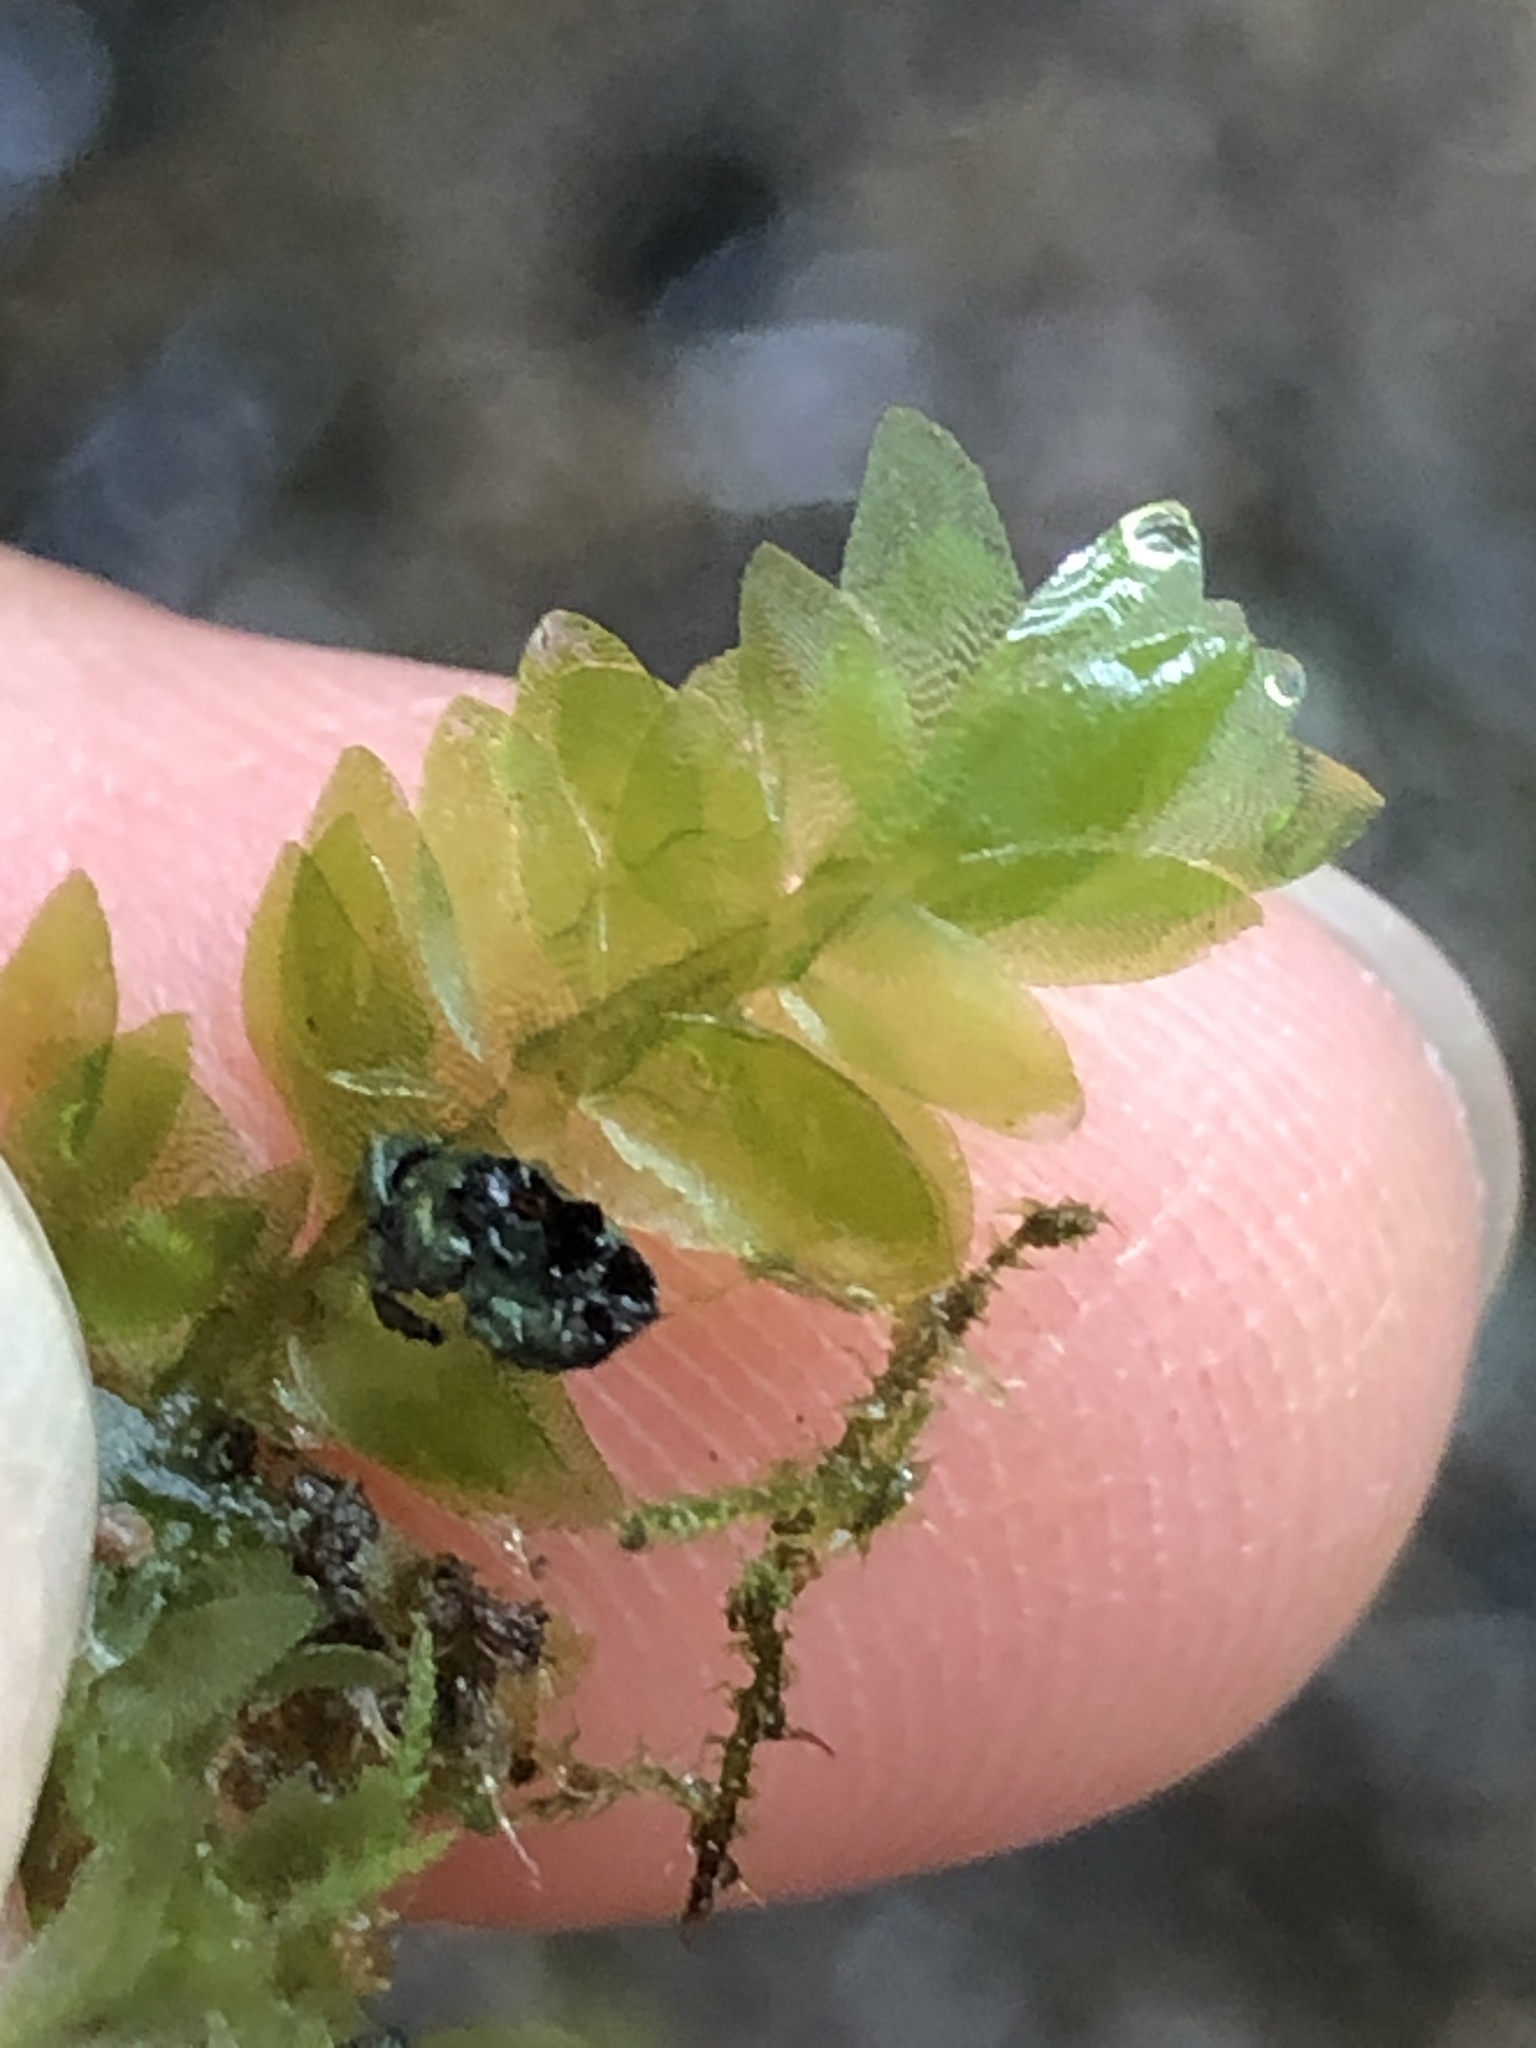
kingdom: Plantae
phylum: Bryophyta
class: Bryopsida
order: Hookeriales
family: Hookeriaceae
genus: Hookeria
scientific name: Hookeria lucens
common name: Shining hookeria
